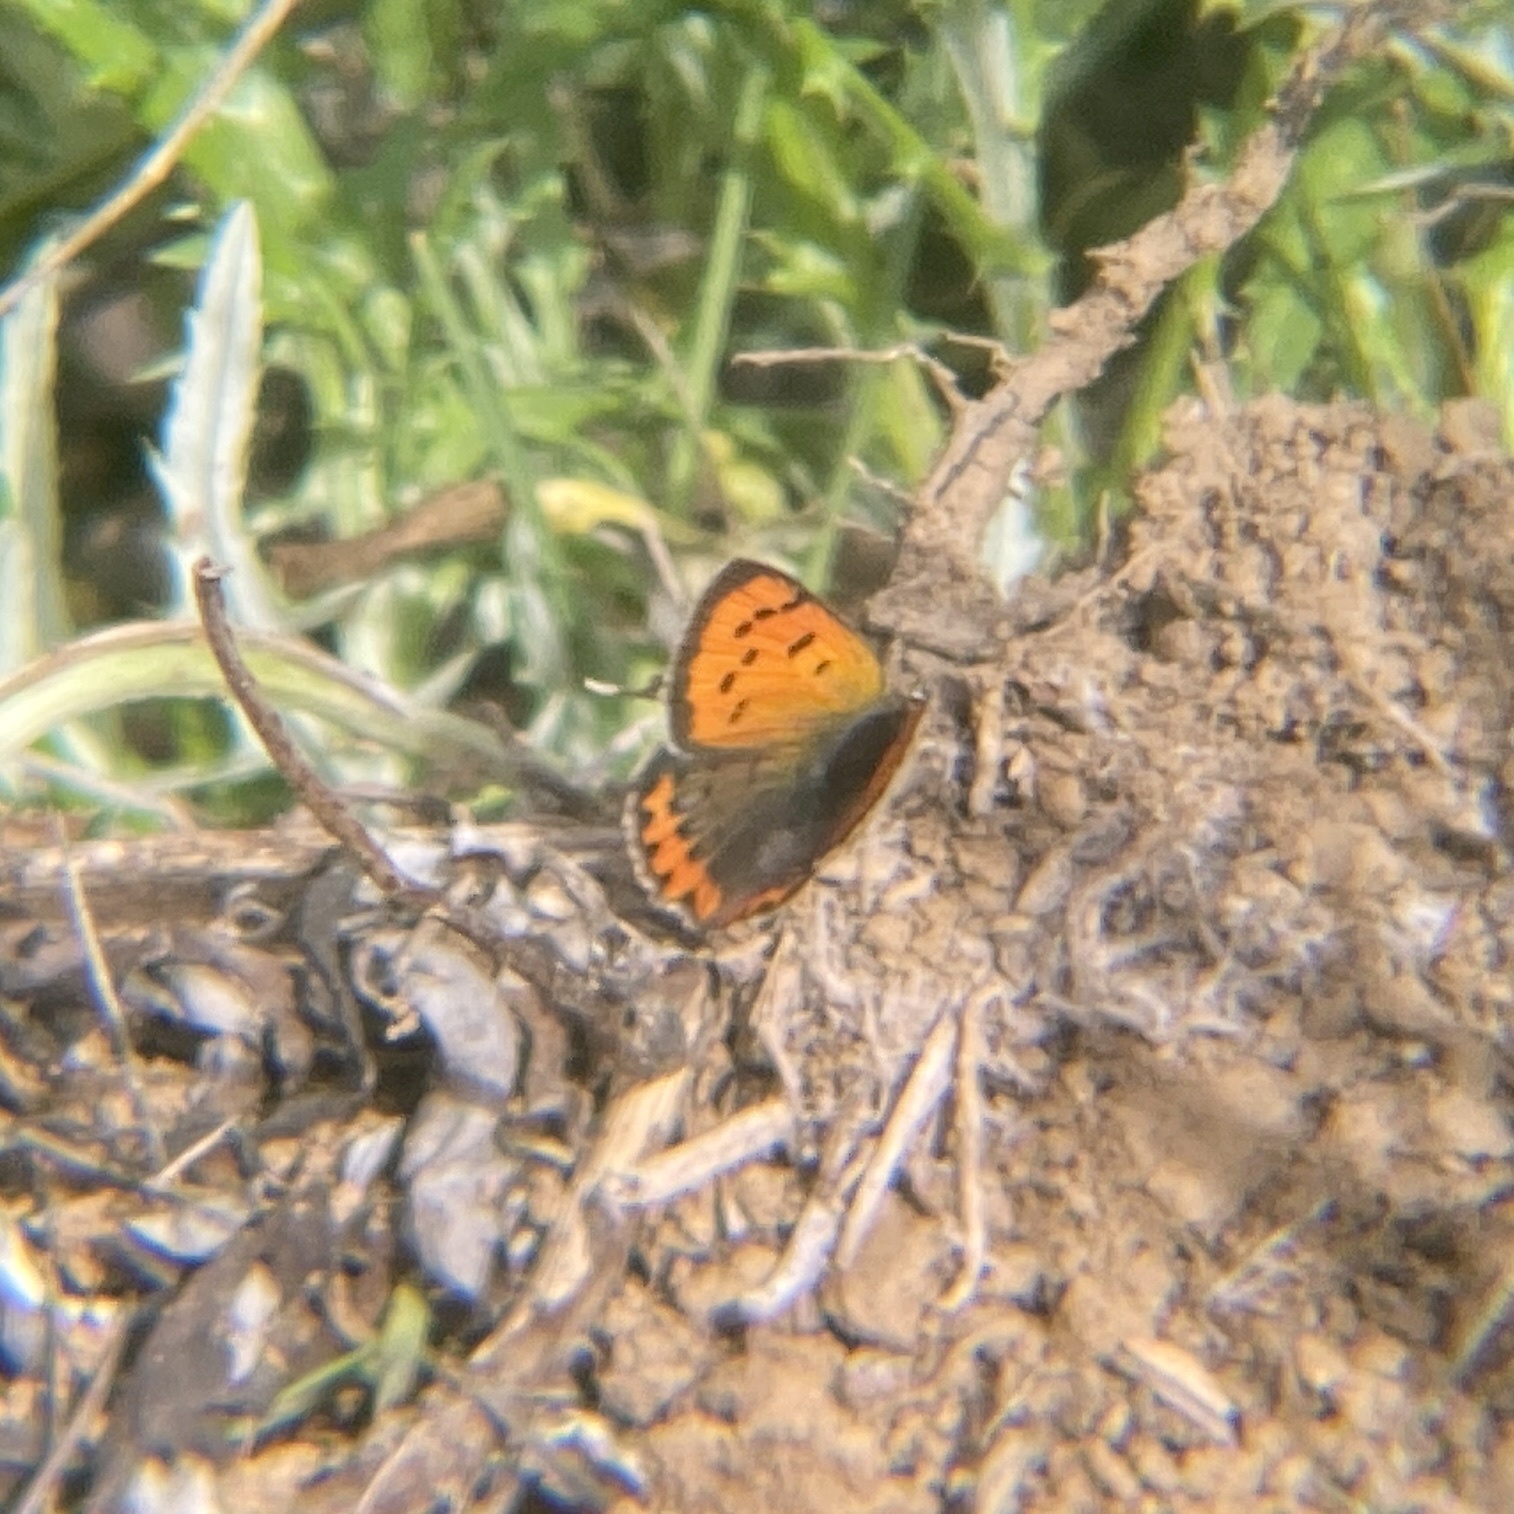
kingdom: Animalia
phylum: Arthropoda
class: Insecta
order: Lepidoptera
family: Lycaenidae
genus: Lycaena
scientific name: Lycaena phlaeas
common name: Small copper
